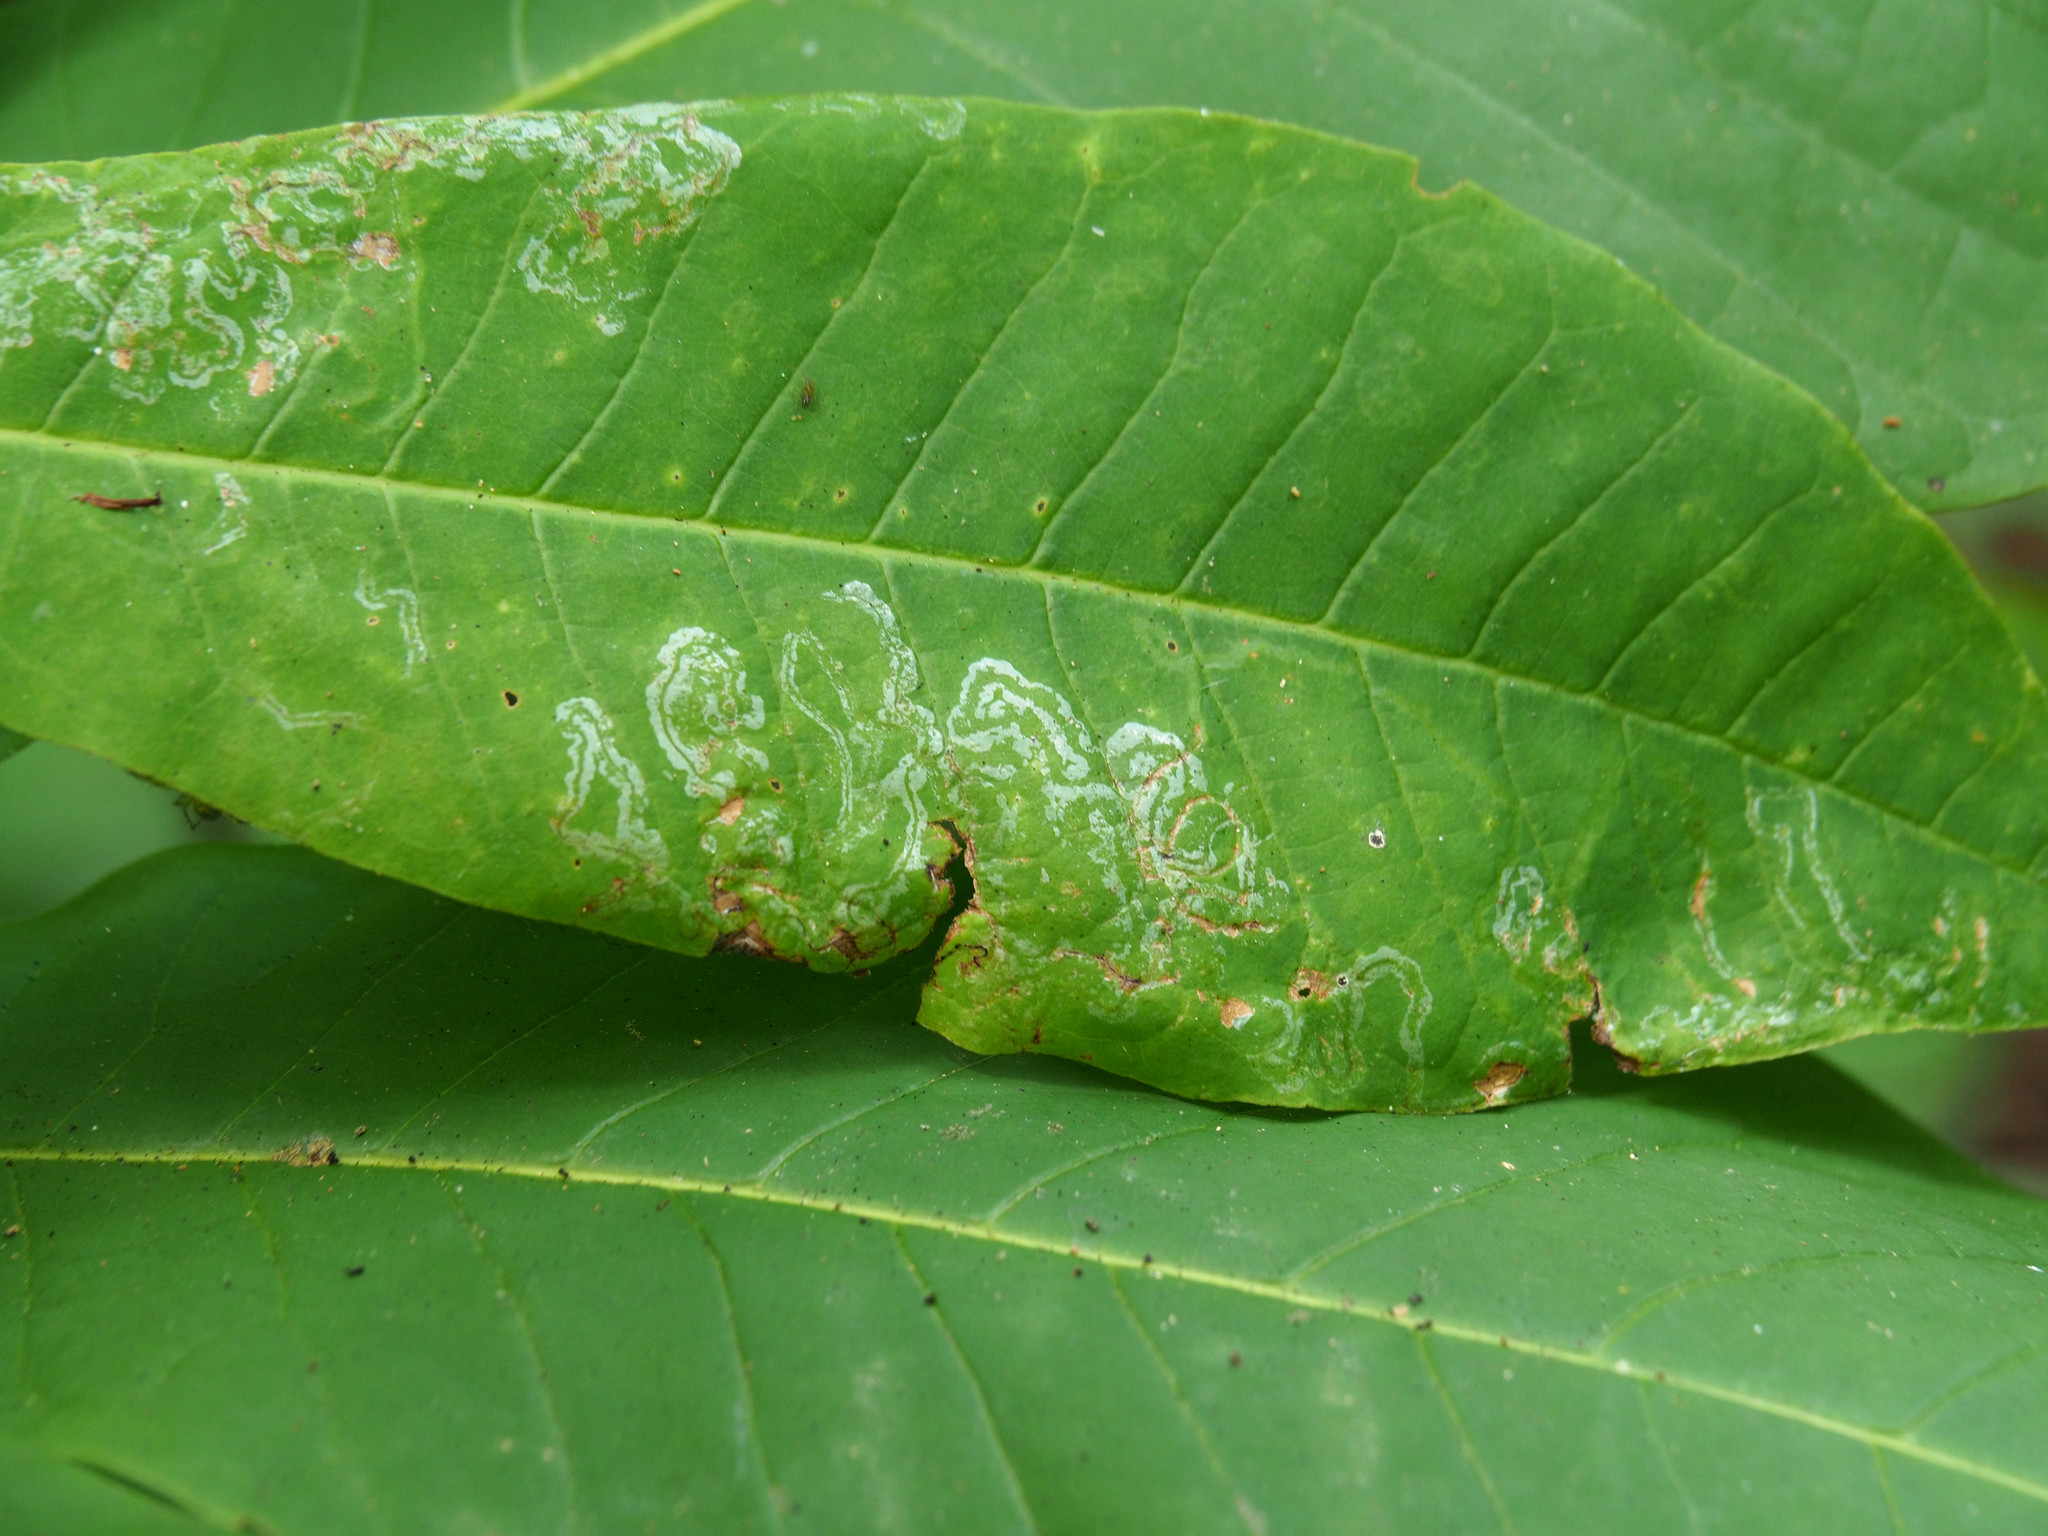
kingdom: Animalia
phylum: Arthropoda
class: Insecta
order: Lepidoptera
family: Gracillariidae
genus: Phyllocnistis
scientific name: Phyllocnistis liriodendronella
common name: Tulip tree leaf miner
